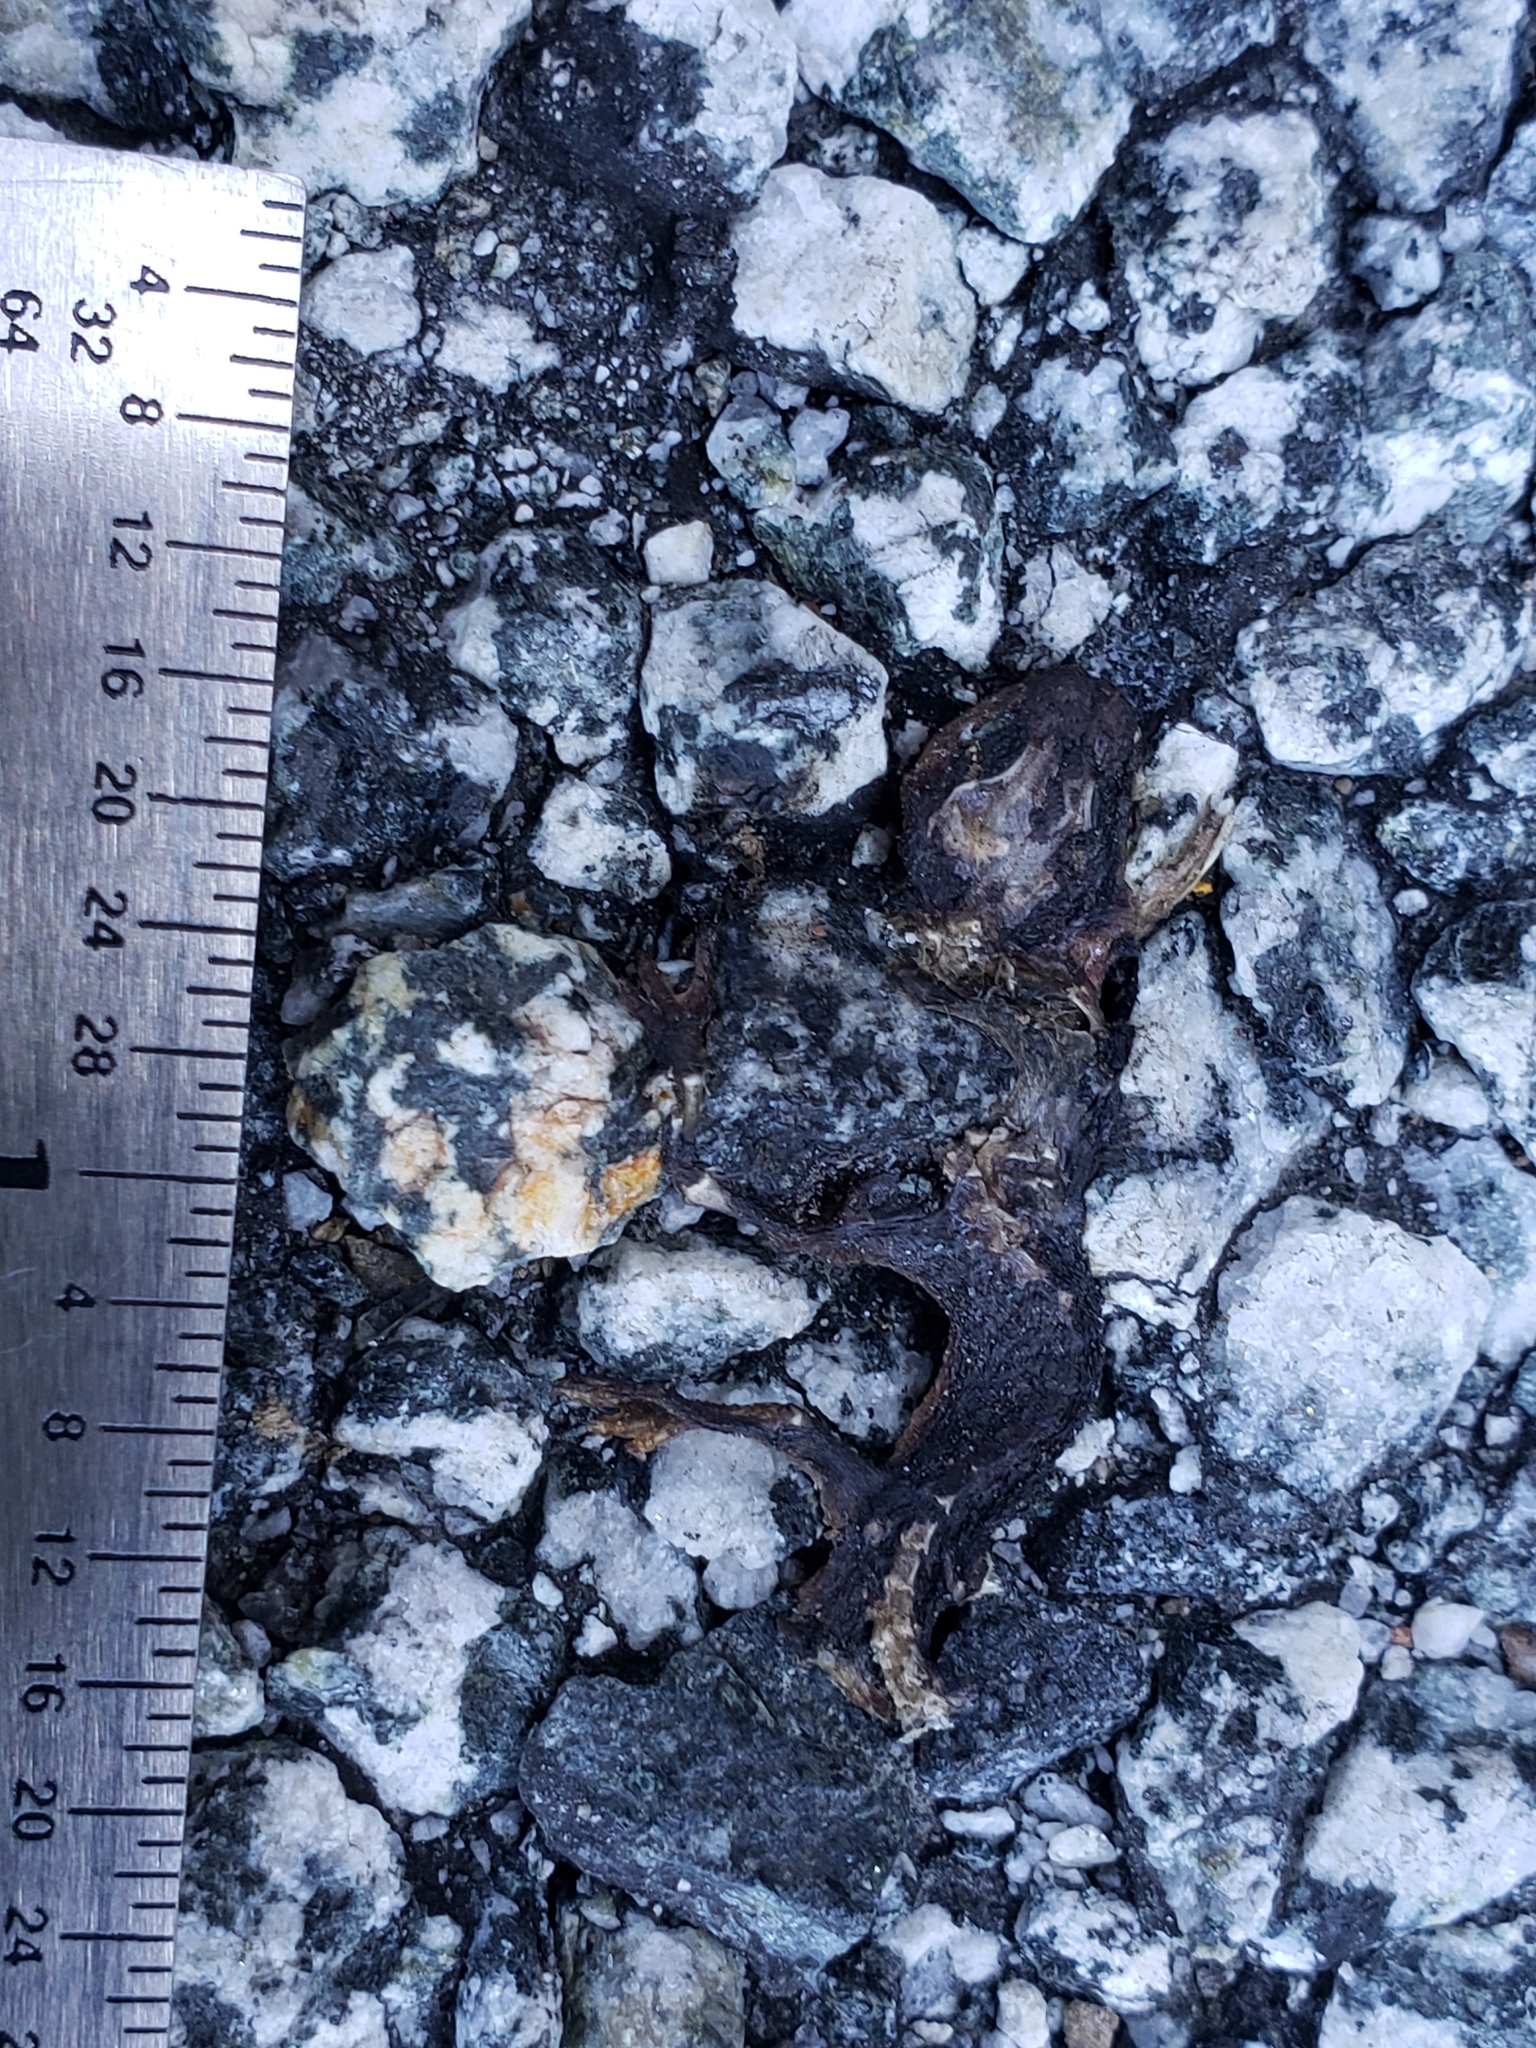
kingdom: Animalia
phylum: Chordata
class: Amphibia
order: Caudata
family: Salamandridae
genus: Taricha
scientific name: Taricha
